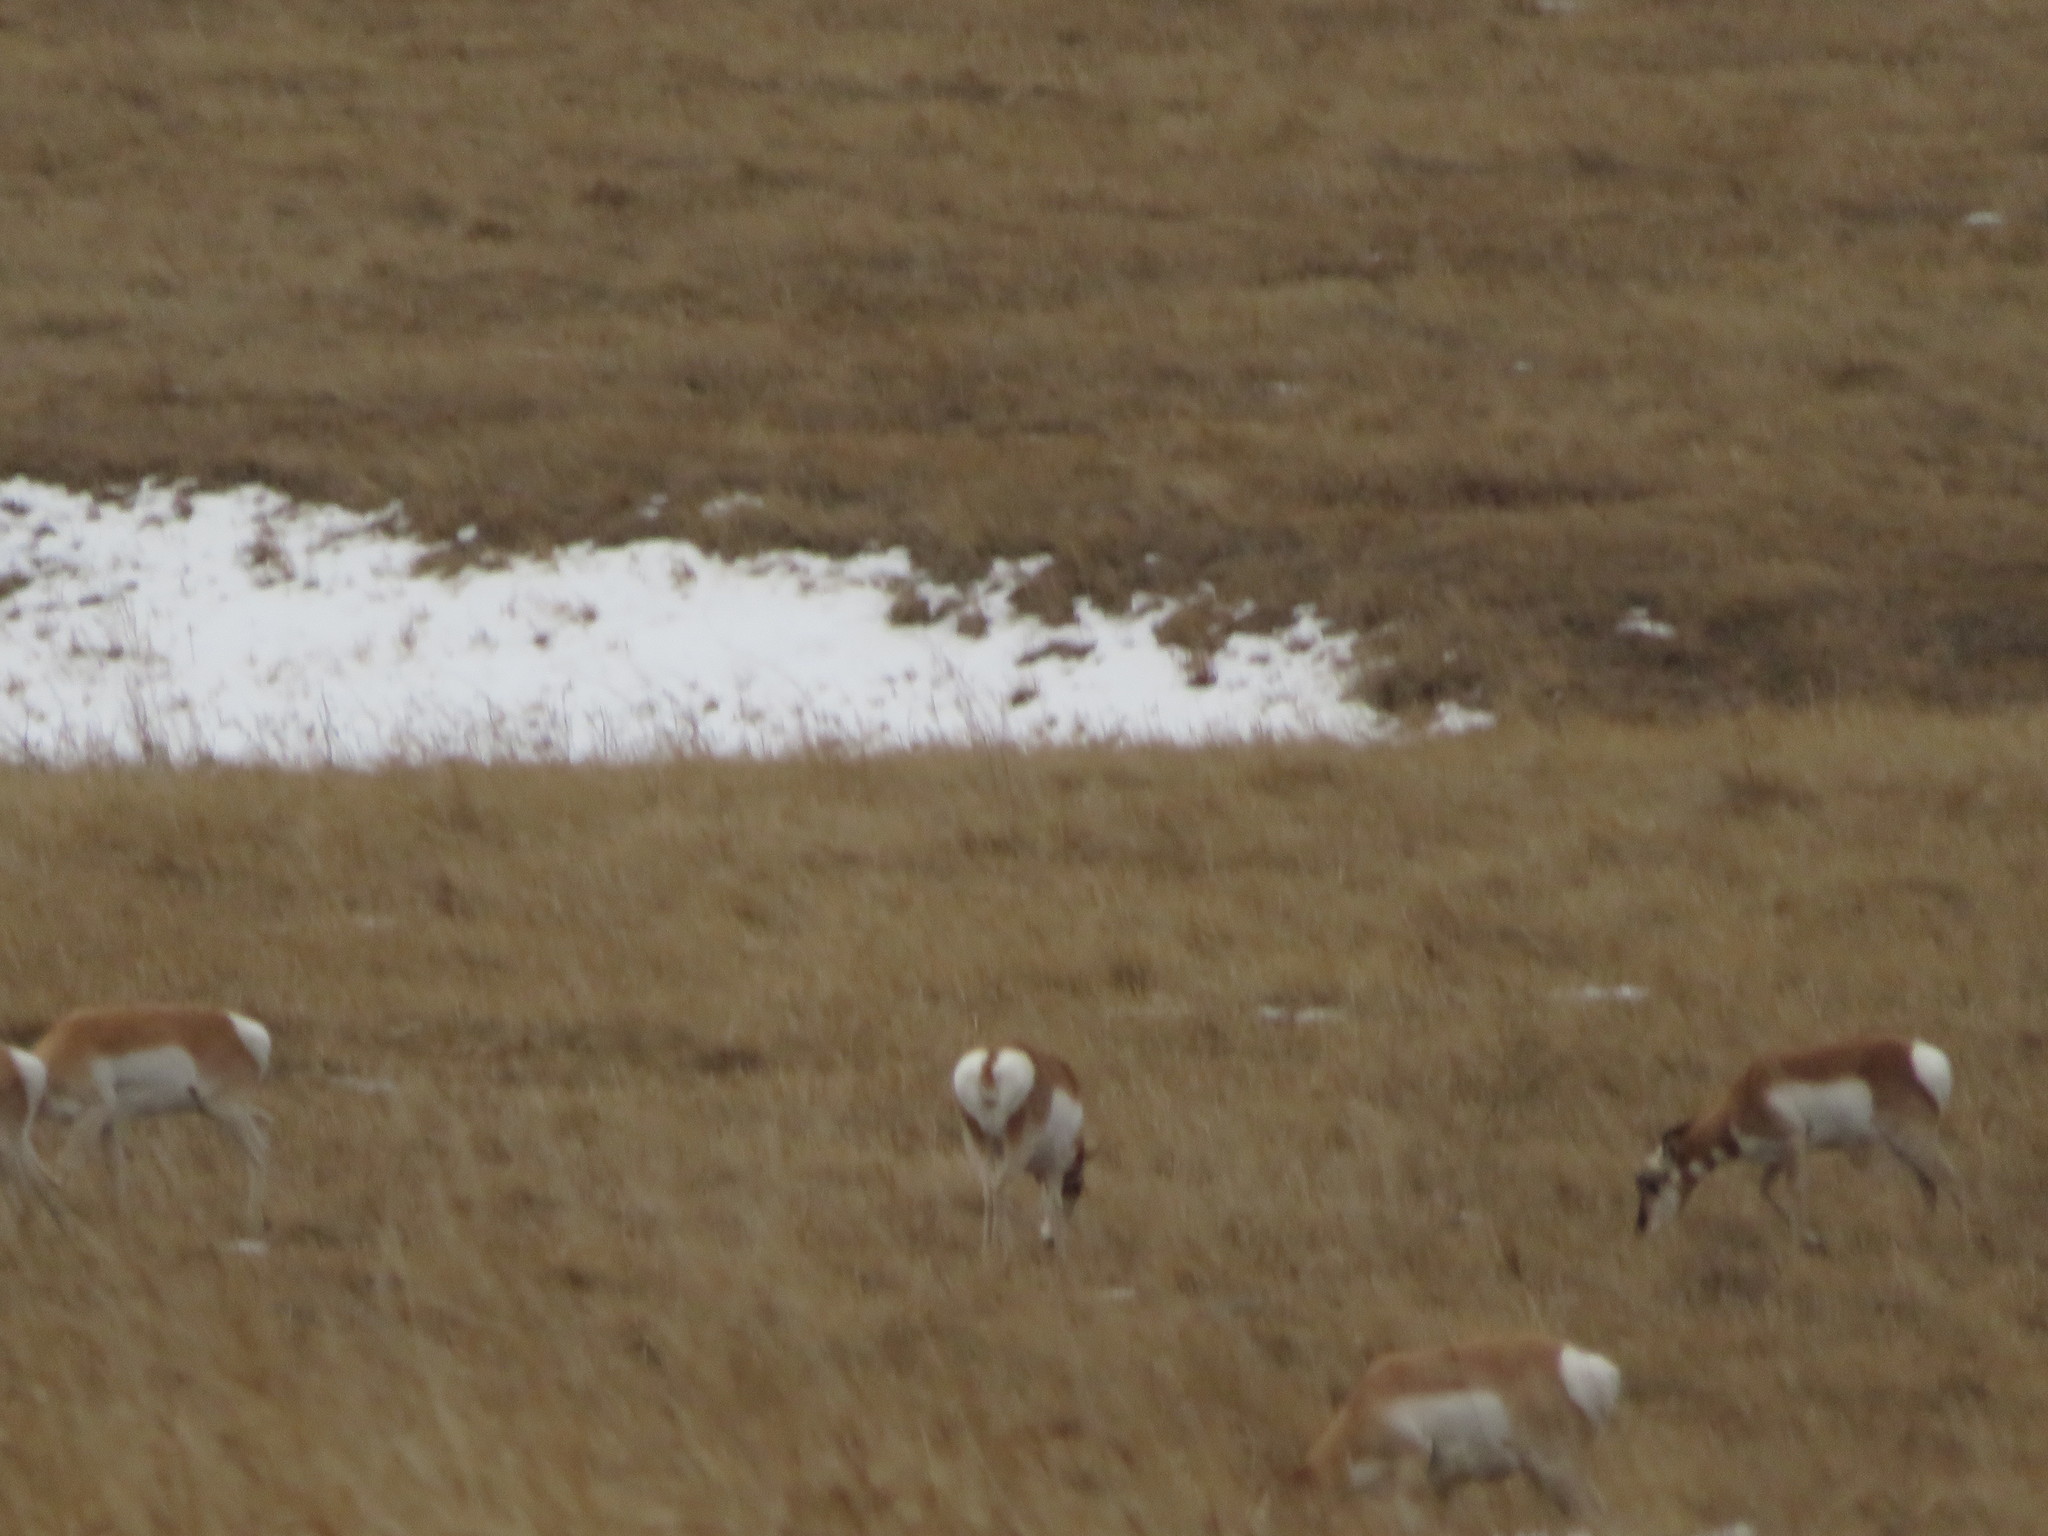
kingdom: Animalia
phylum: Chordata
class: Mammalia
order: Artiodactyla
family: Antilocapridae
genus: Antilocapra
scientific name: Antilocapra americana
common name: Pronghorn
